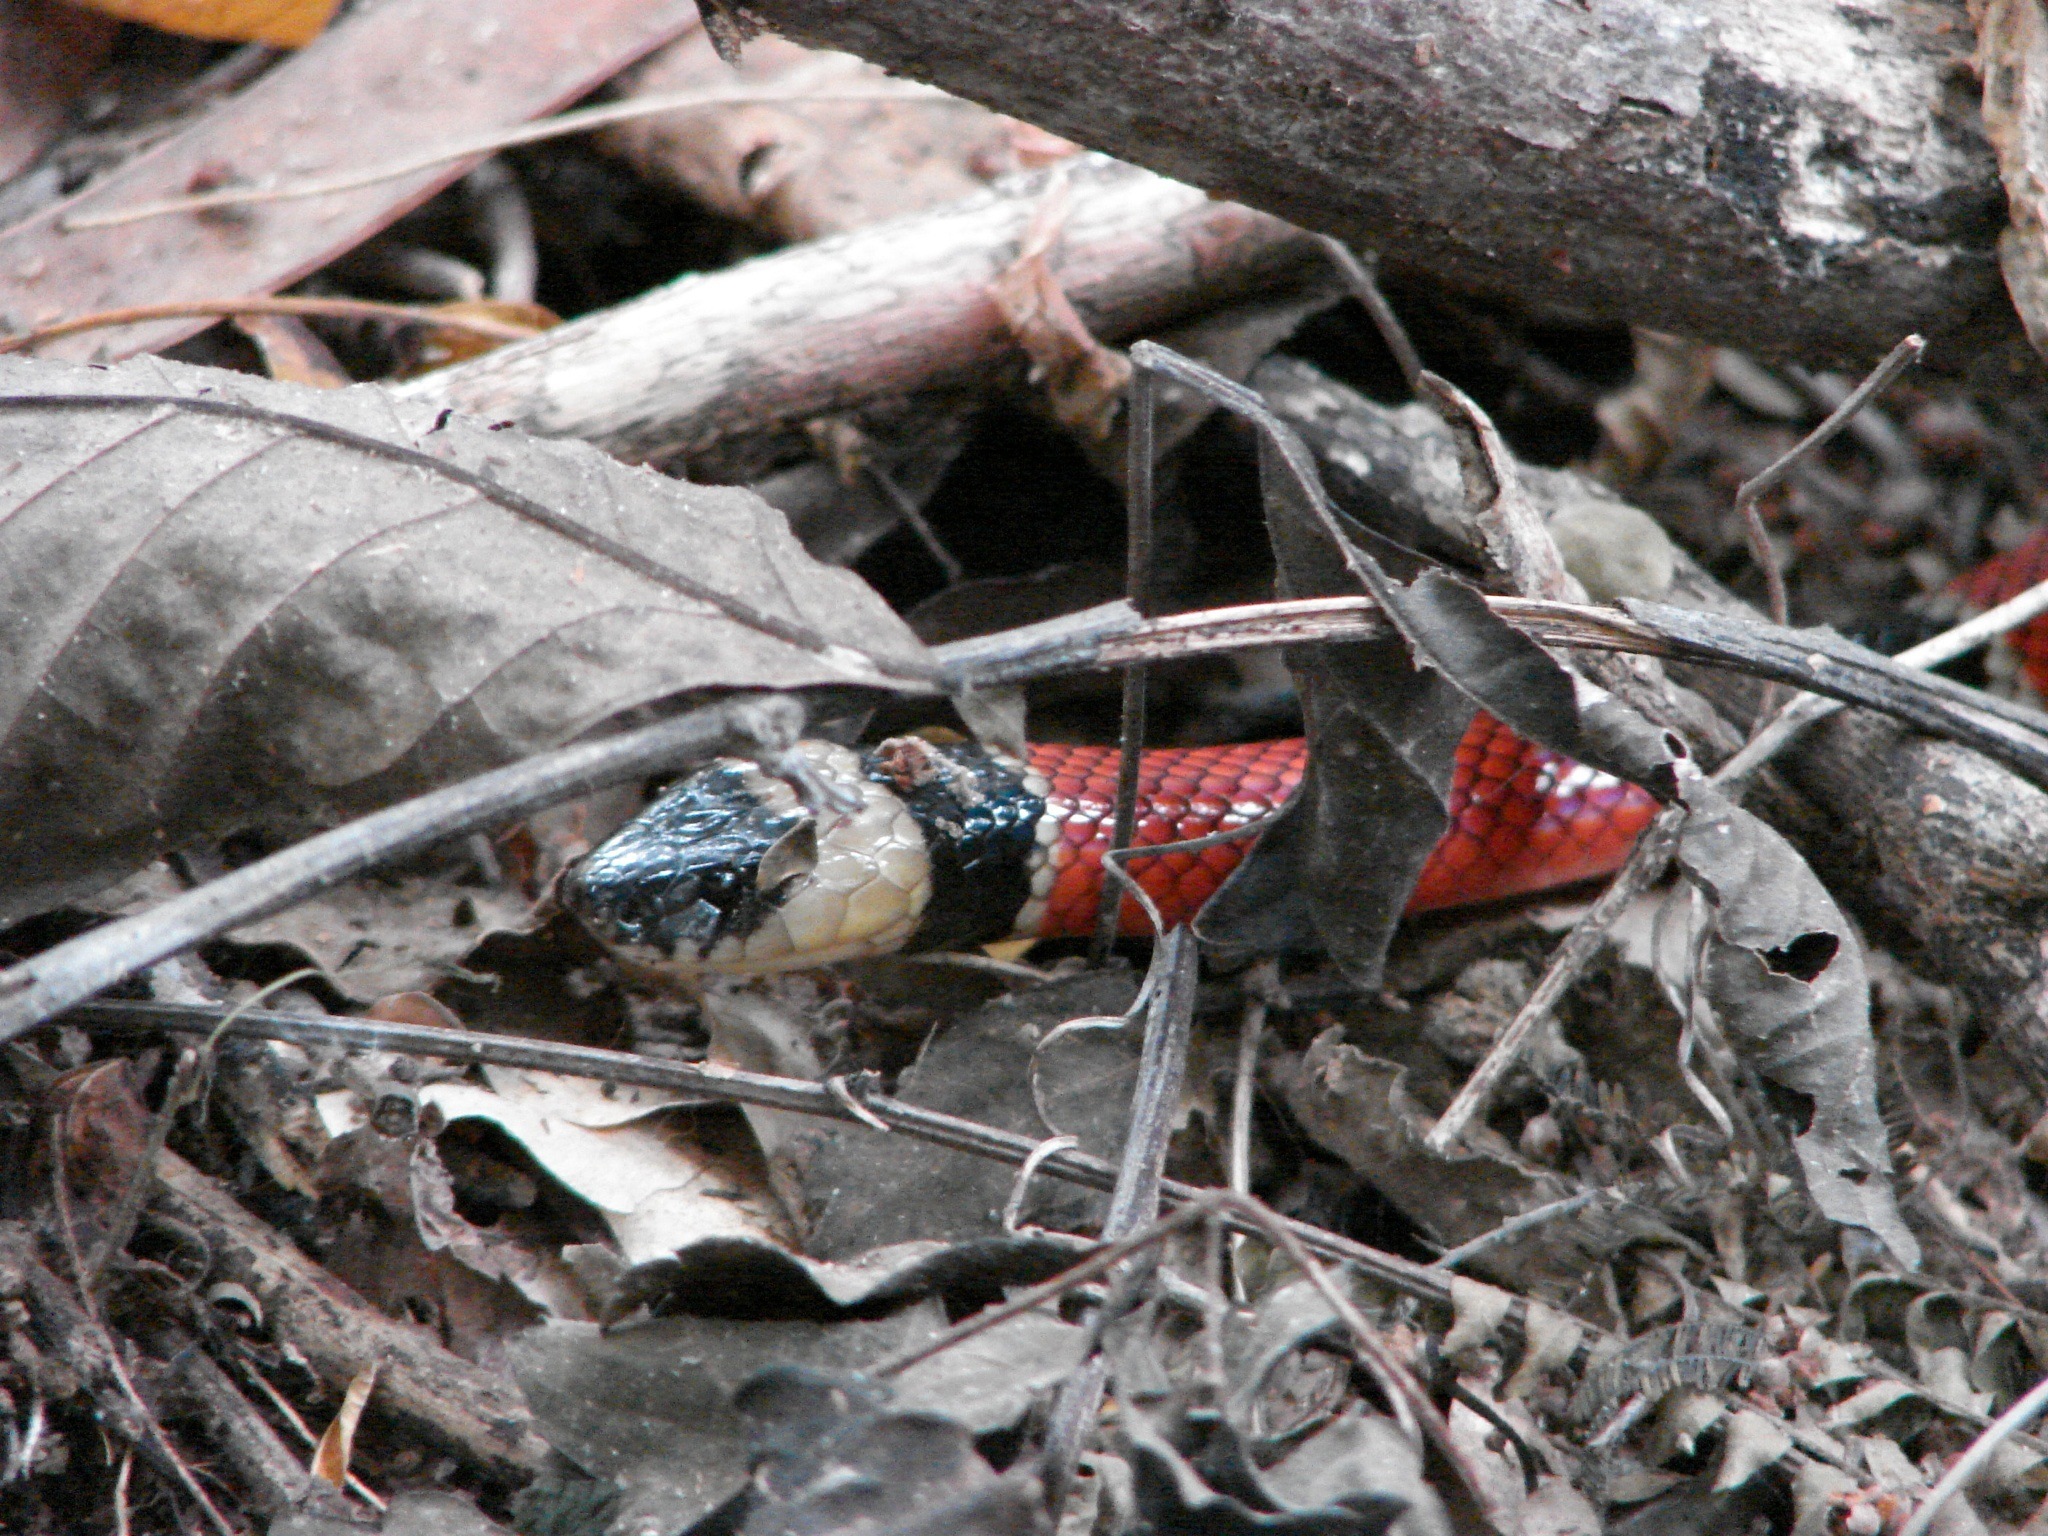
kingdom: Animalia
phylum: Chordata
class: Squamata
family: Elapidae
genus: Micrurus
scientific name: Micrurus distans
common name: Clear-banded coral snake
